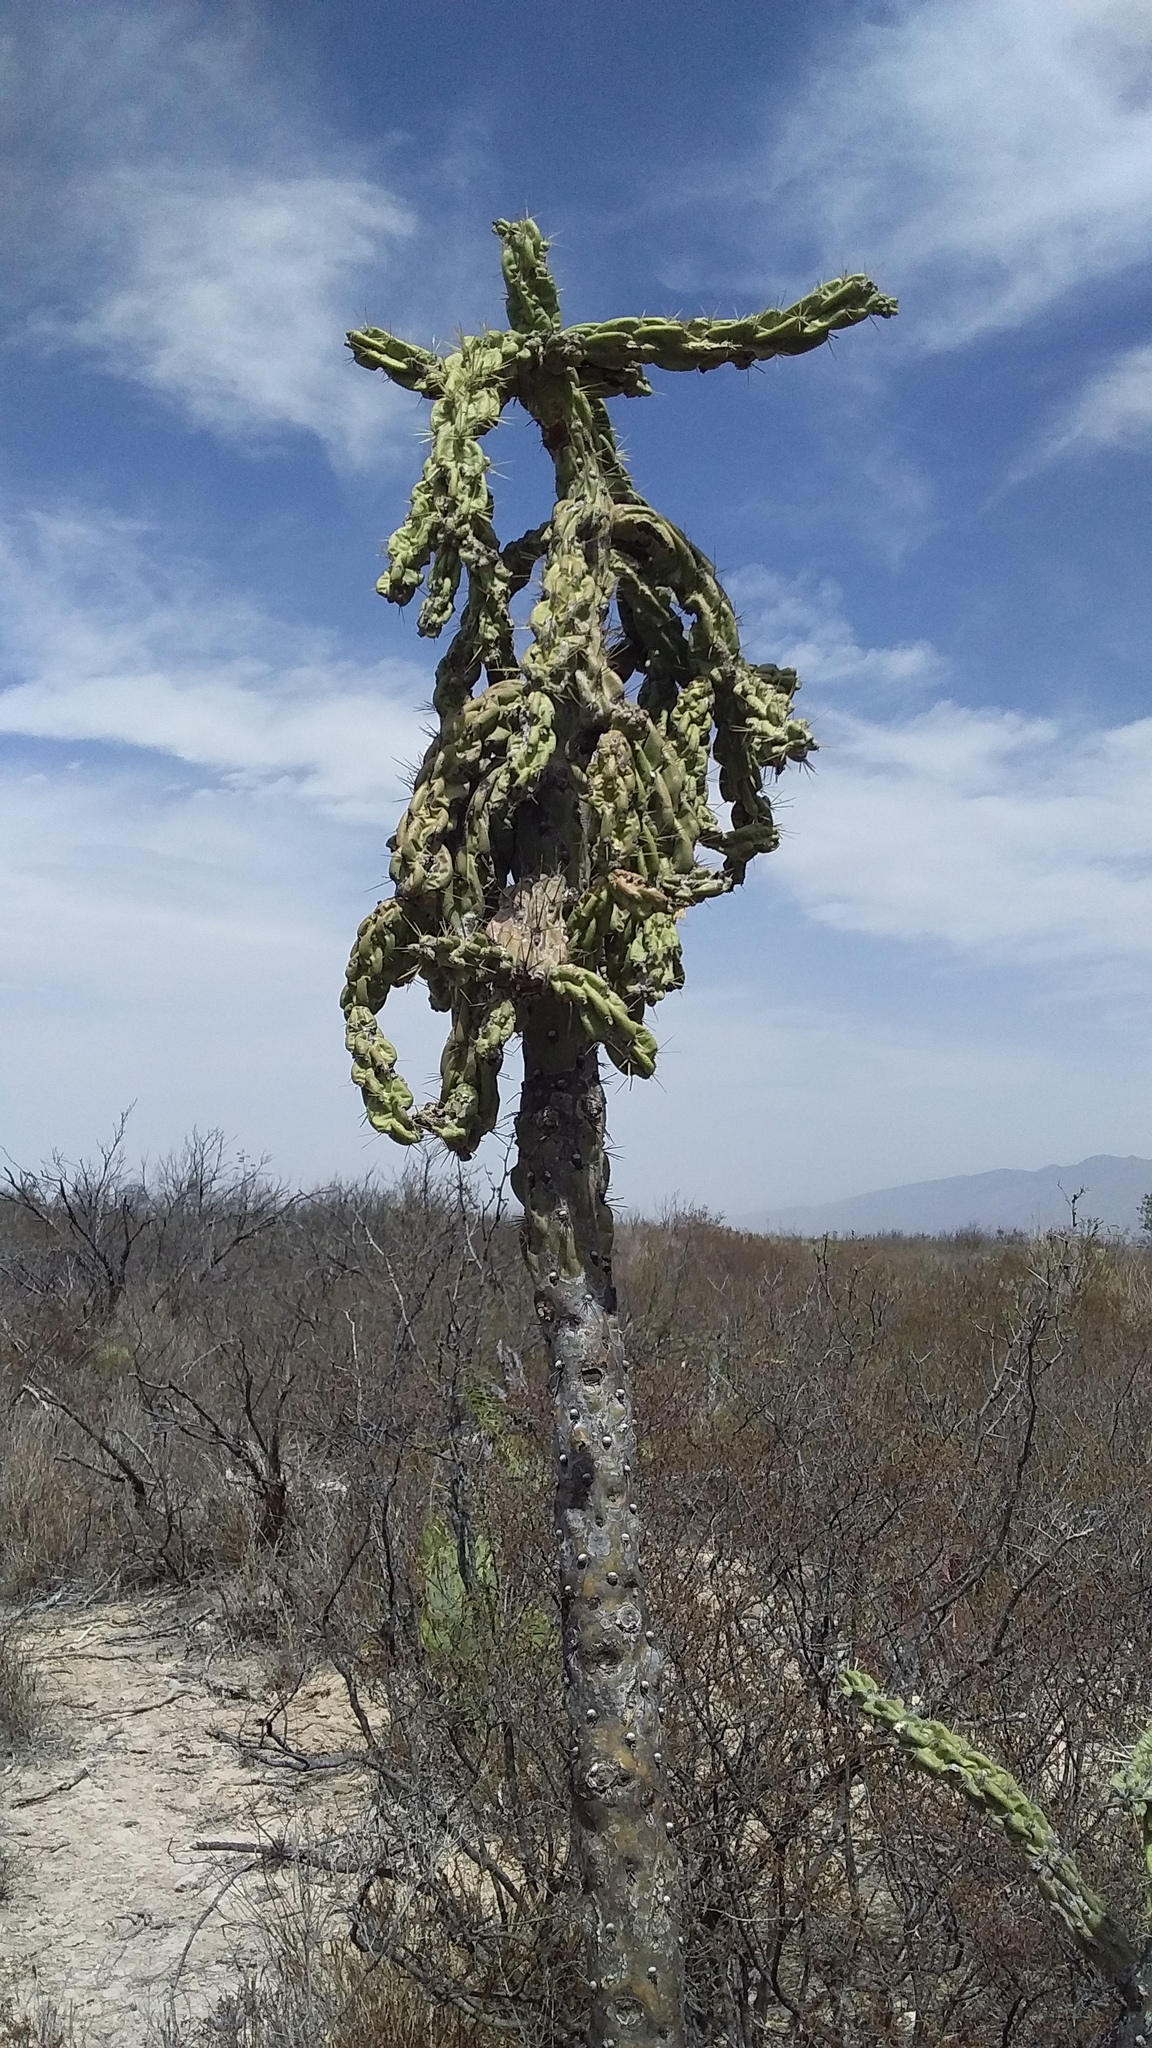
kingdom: Plantae
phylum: Tracheophyta
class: Magnoliopsida
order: Caryophyllales
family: Cactaceae
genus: Cylindropuntia
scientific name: Cylindropuntia imbricata
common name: Candelabrum cactus
